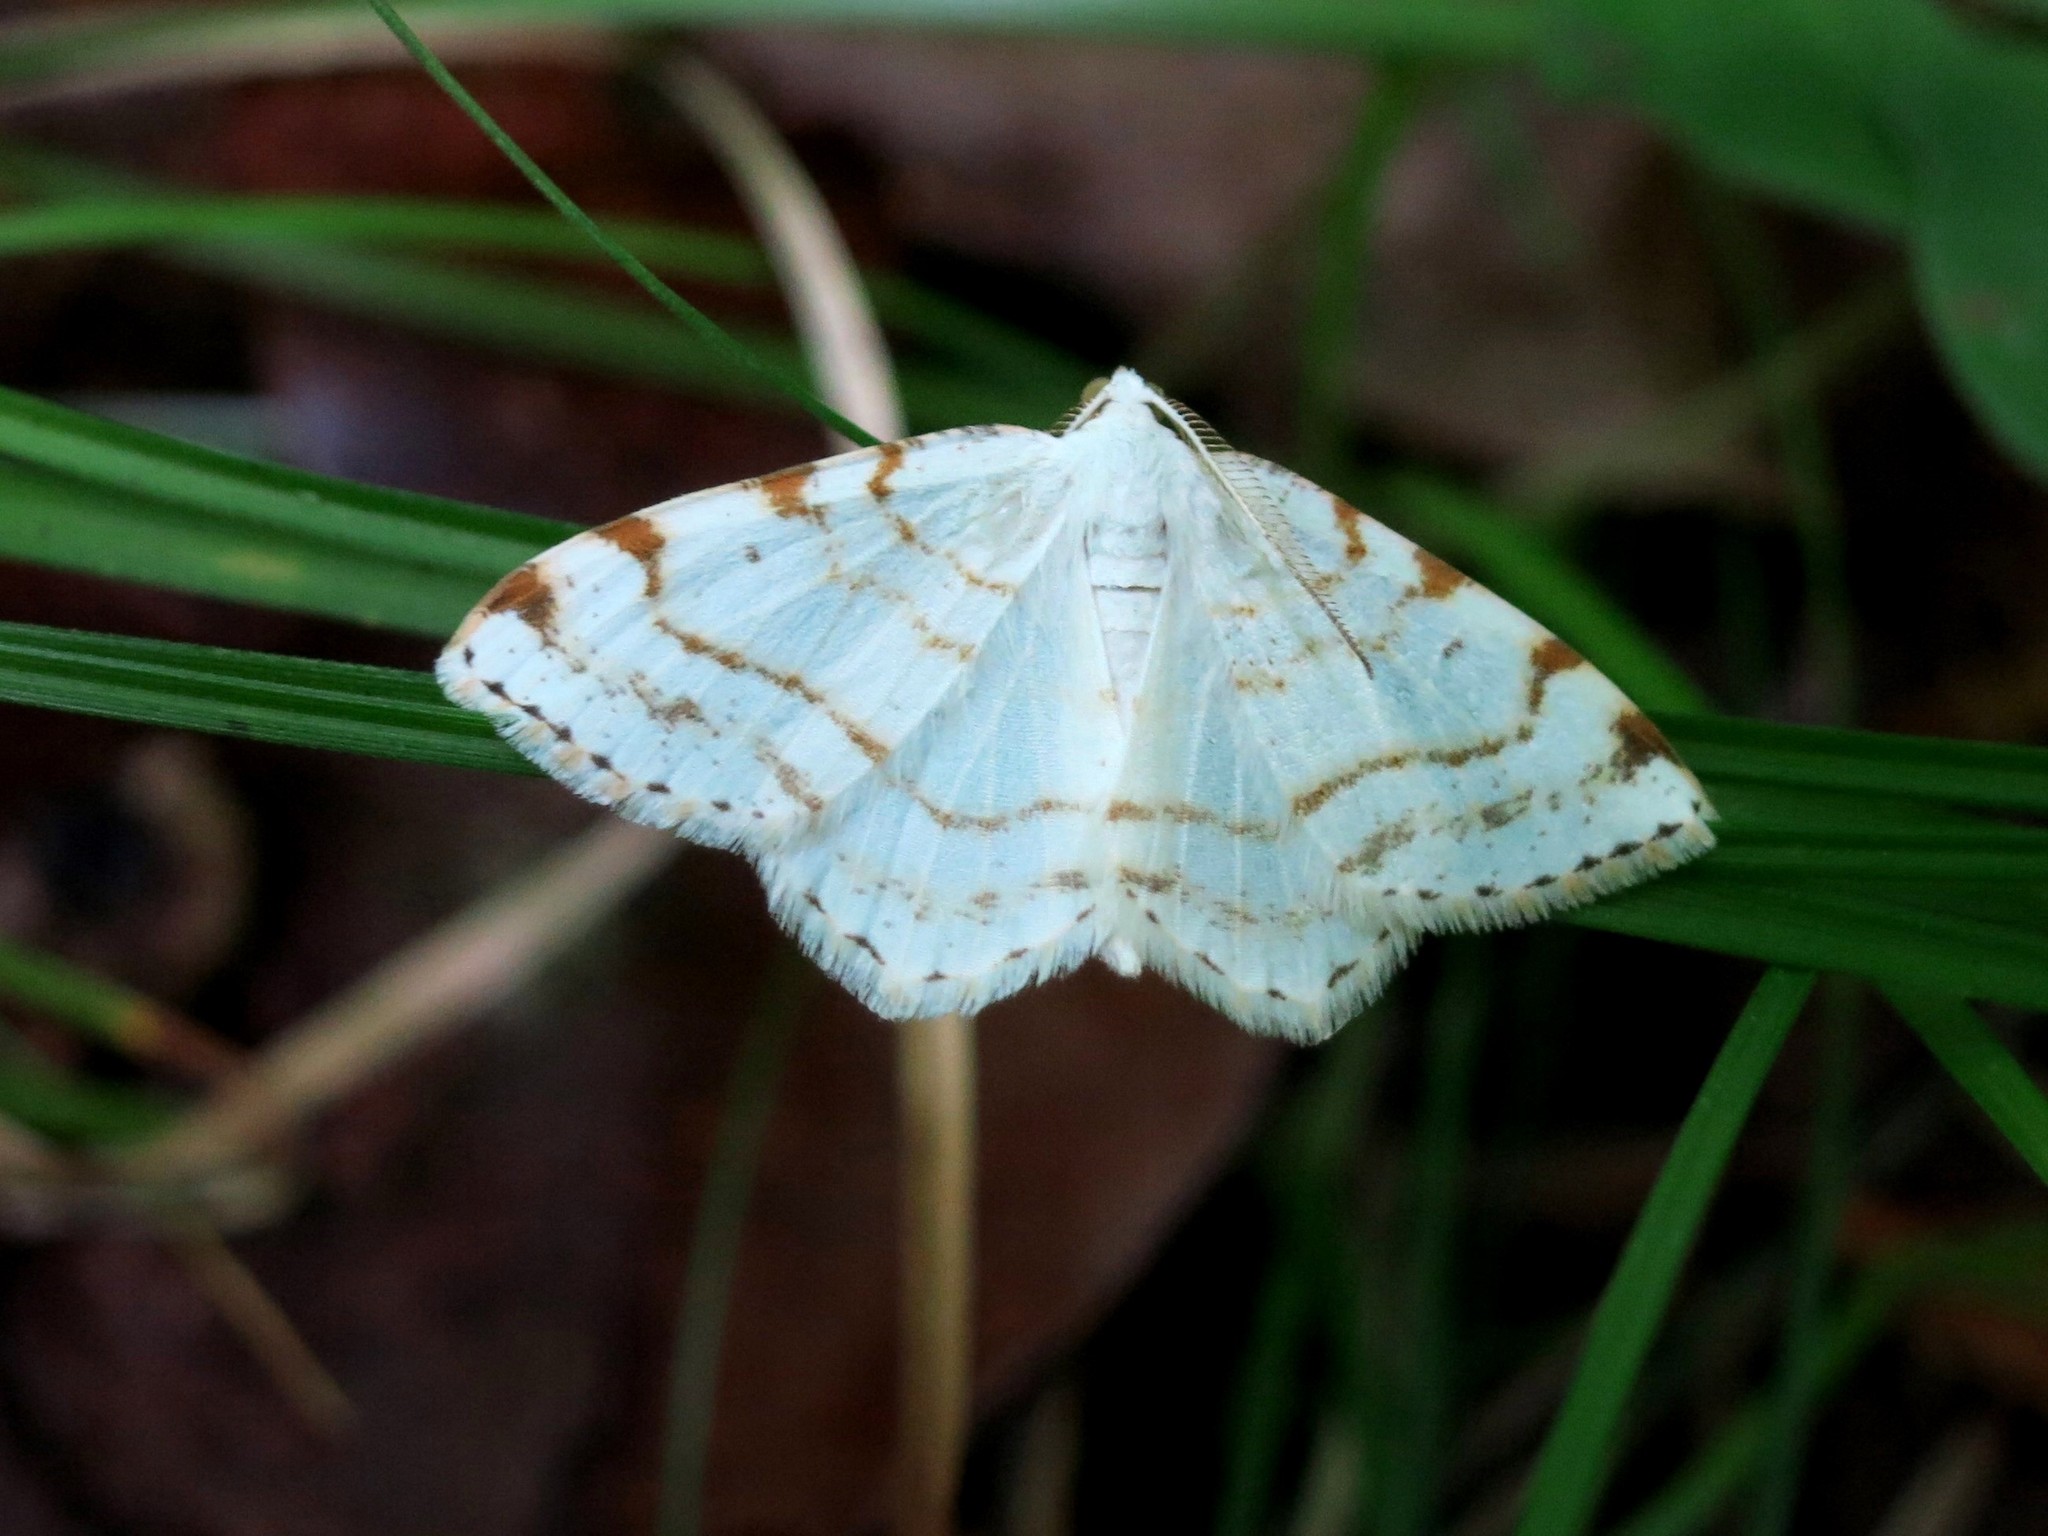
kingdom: Animalia
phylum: Arthropoda
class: Insecta
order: Lepidoptera
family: Geometridae
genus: Macaria
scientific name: Macaria pustularia
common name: Lesser maple spanworm moth
